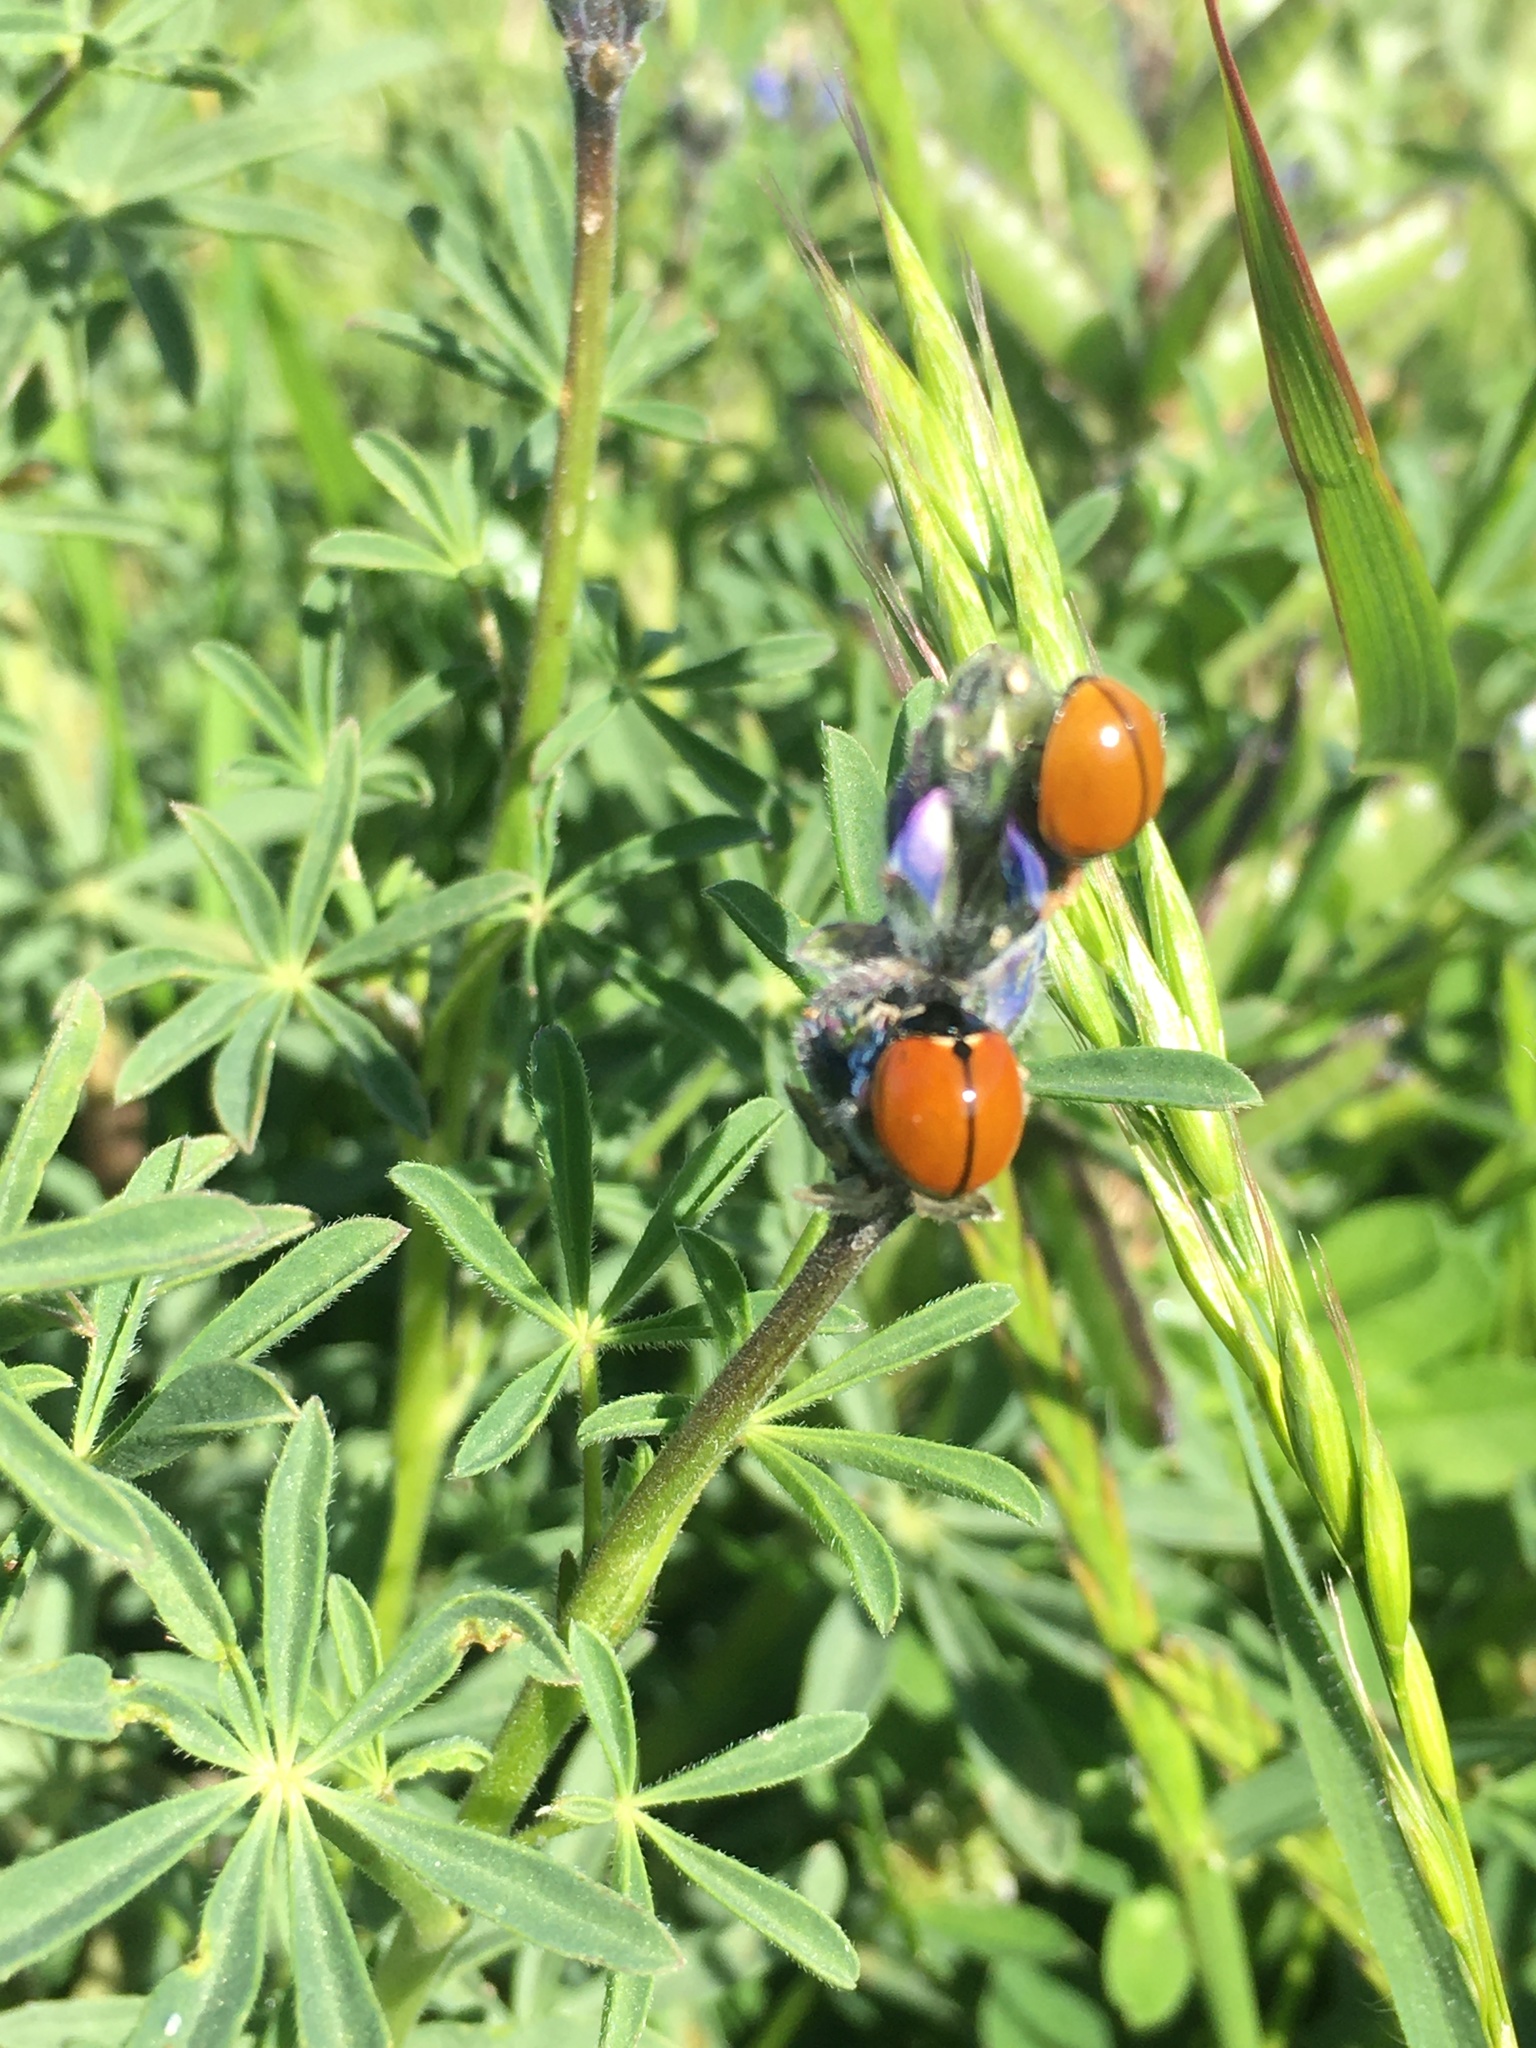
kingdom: Animalia
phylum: Arthropoda
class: Insecta
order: Coleoptera
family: Coccinellidae
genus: Coccinella
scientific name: Coccinella californica
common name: Lady beetle
